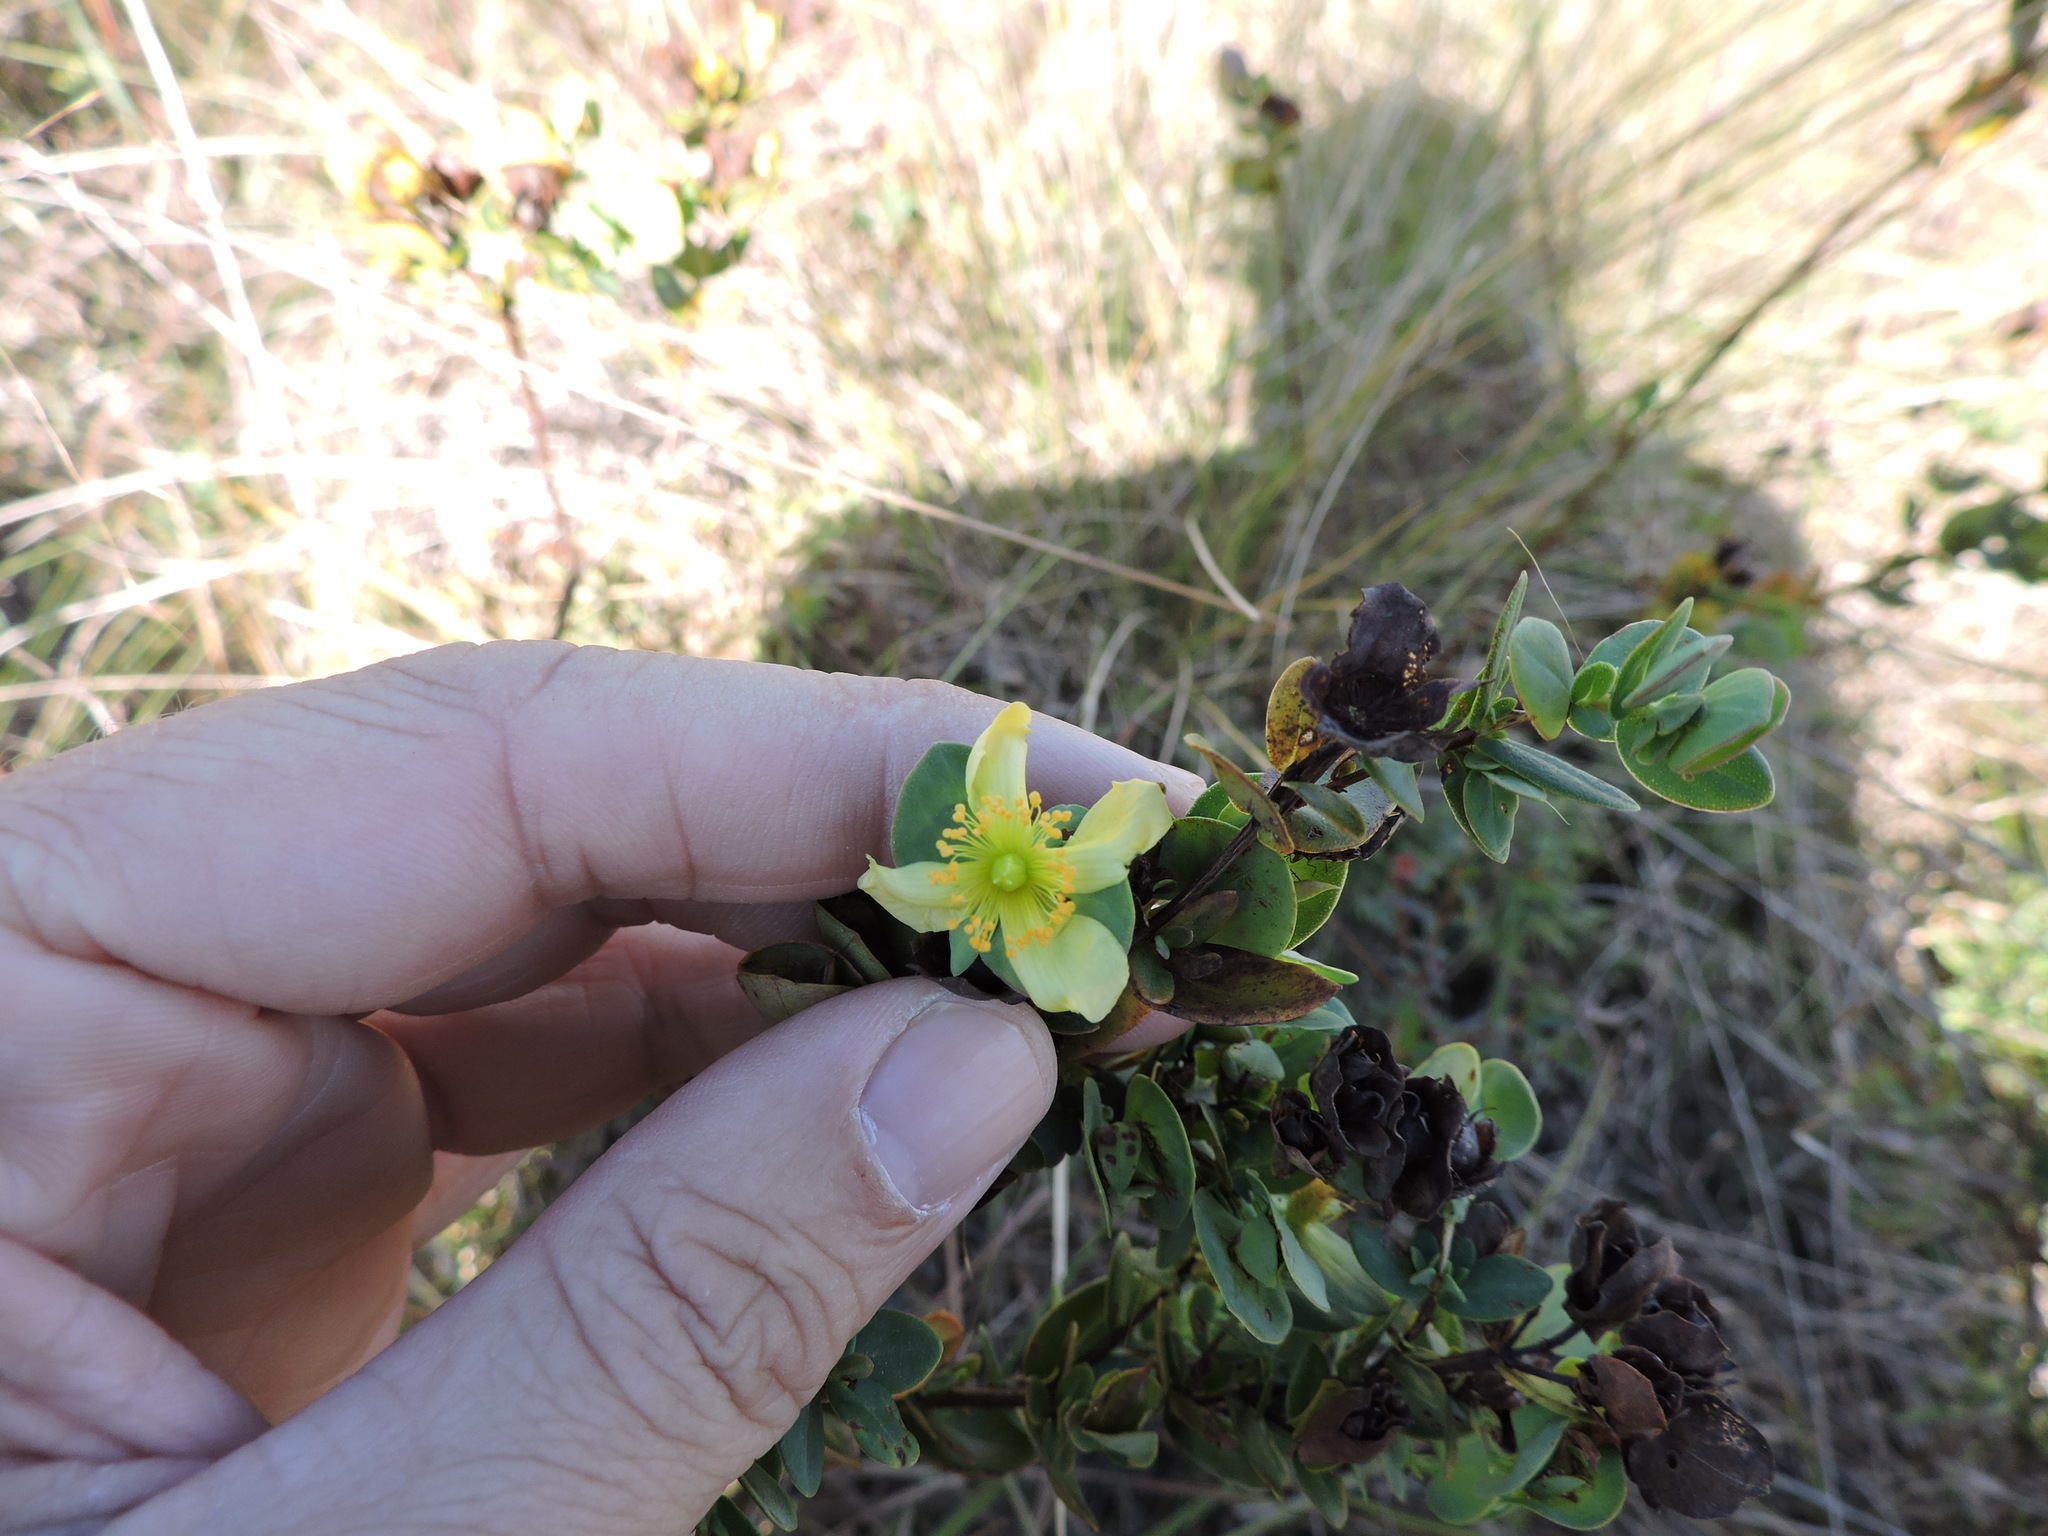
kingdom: Plantae
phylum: Tracheophyta
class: Magnoliopsida
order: Malpighiales
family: Hypericaceae
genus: Hypericum
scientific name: Hypericum crux-andreae
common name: St.-peter's-wort
